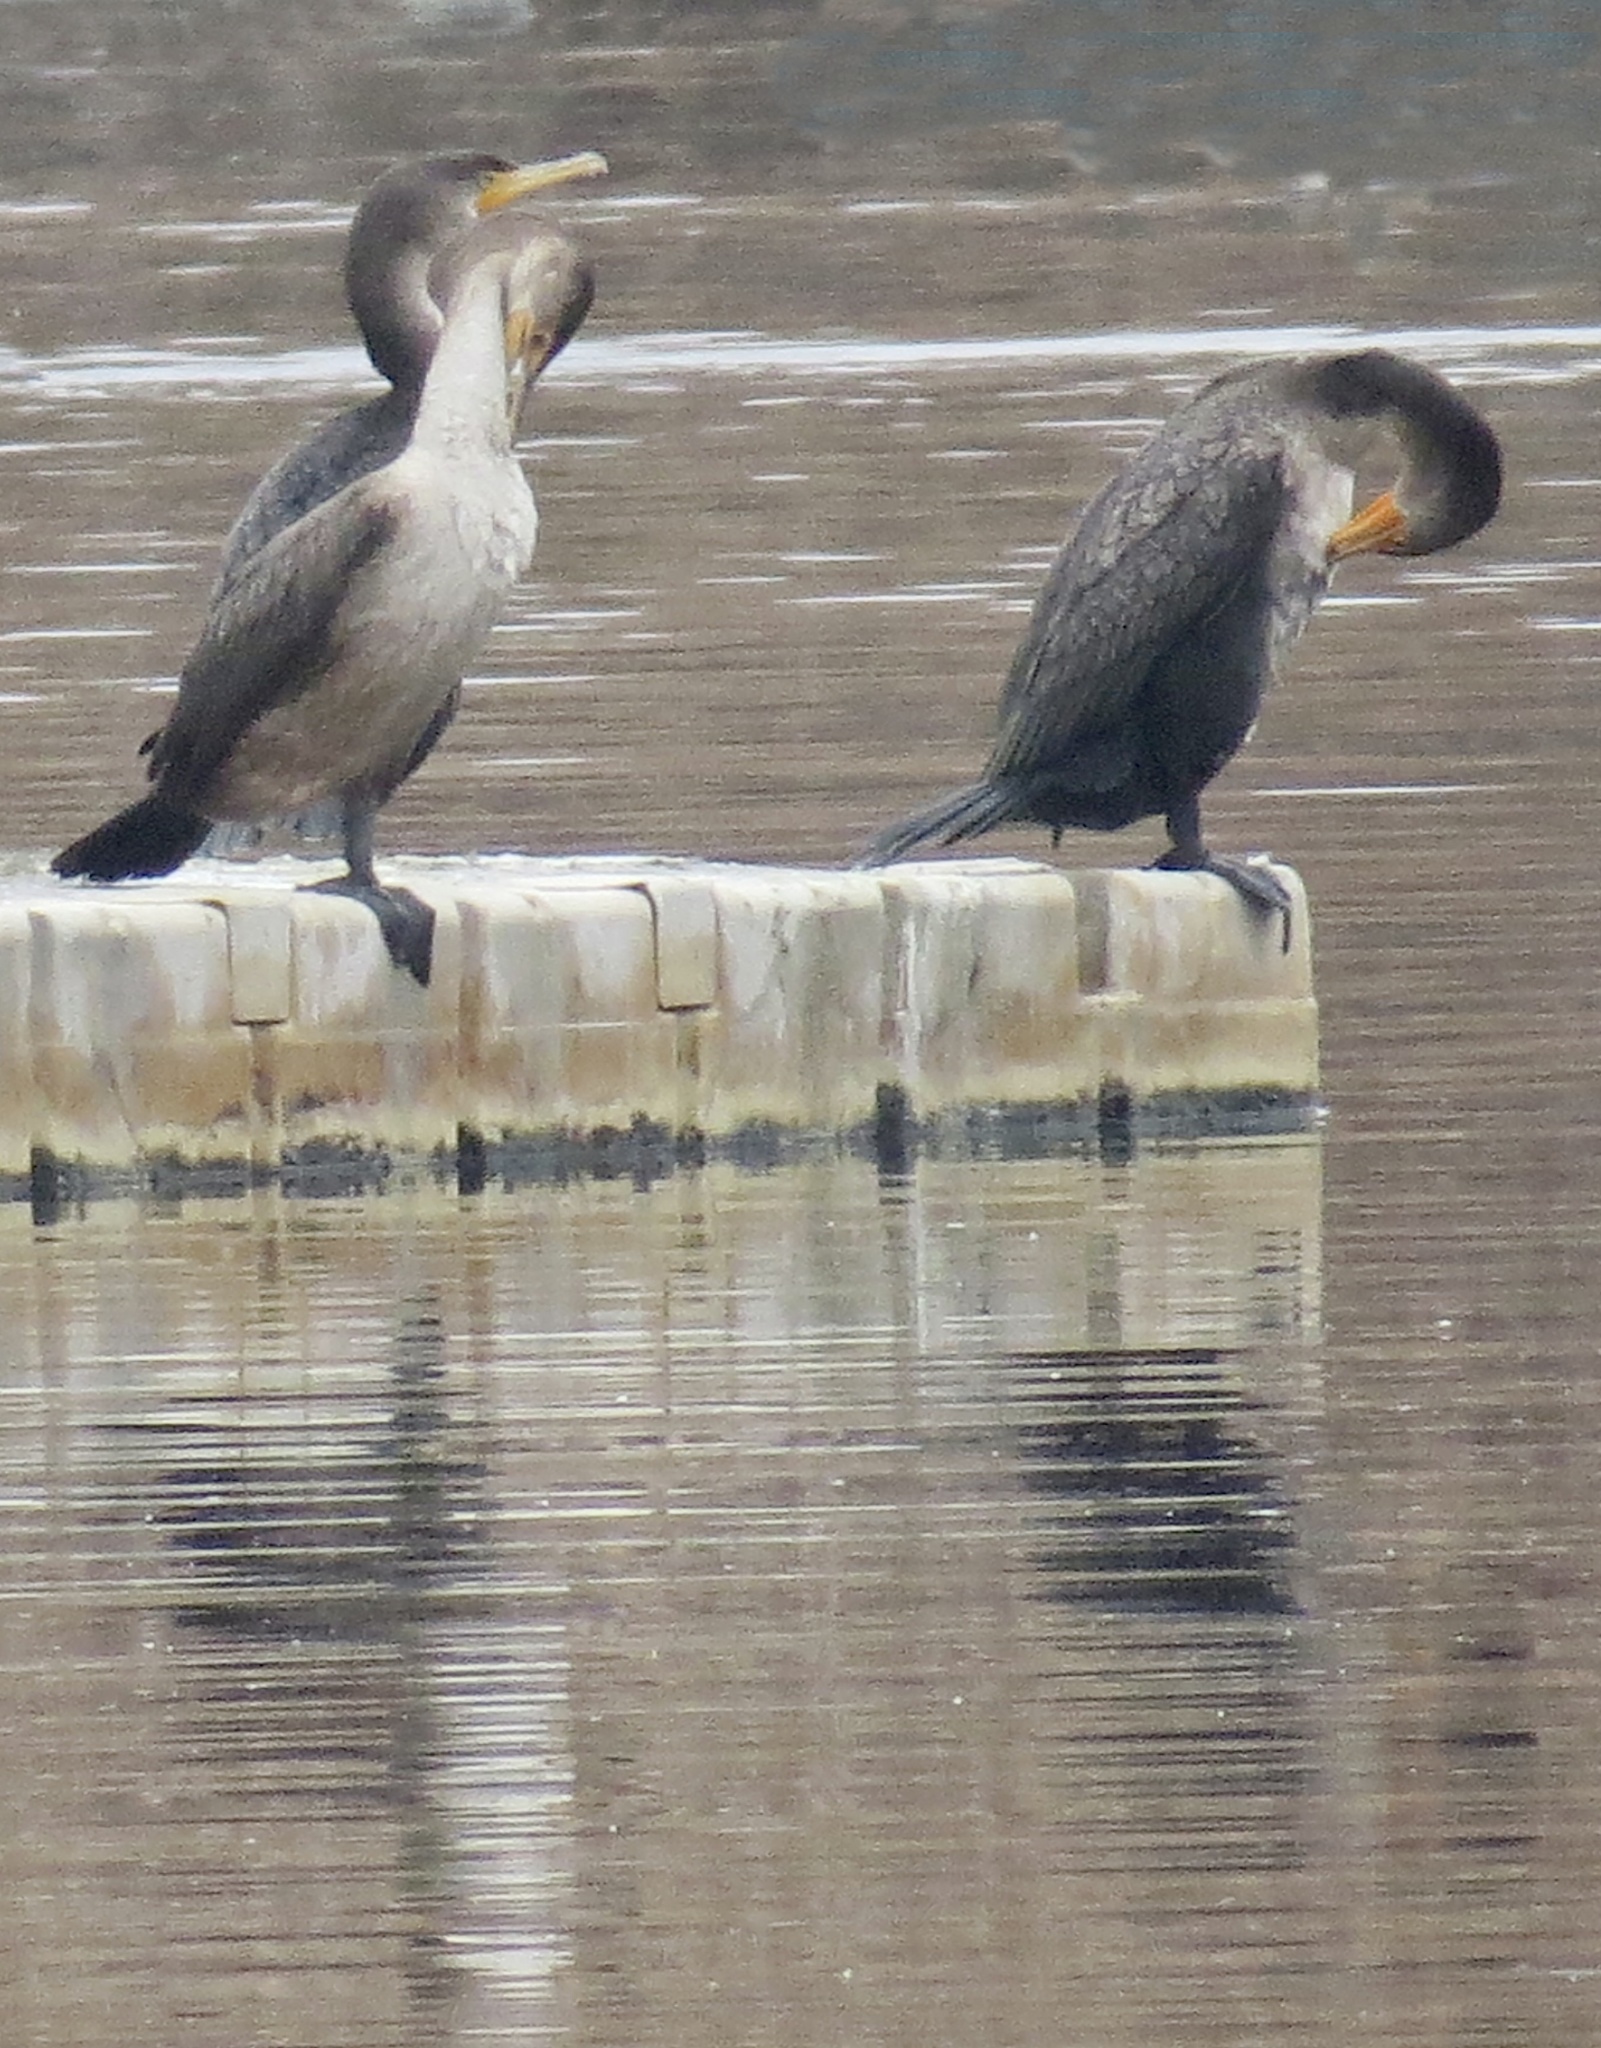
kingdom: Animalia
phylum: Chordata
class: Aves
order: Suliformes
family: Phalacrocoracidae
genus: Phalacrocorax
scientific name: Phalacrocorax auritus
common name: Double-crested cormorant
